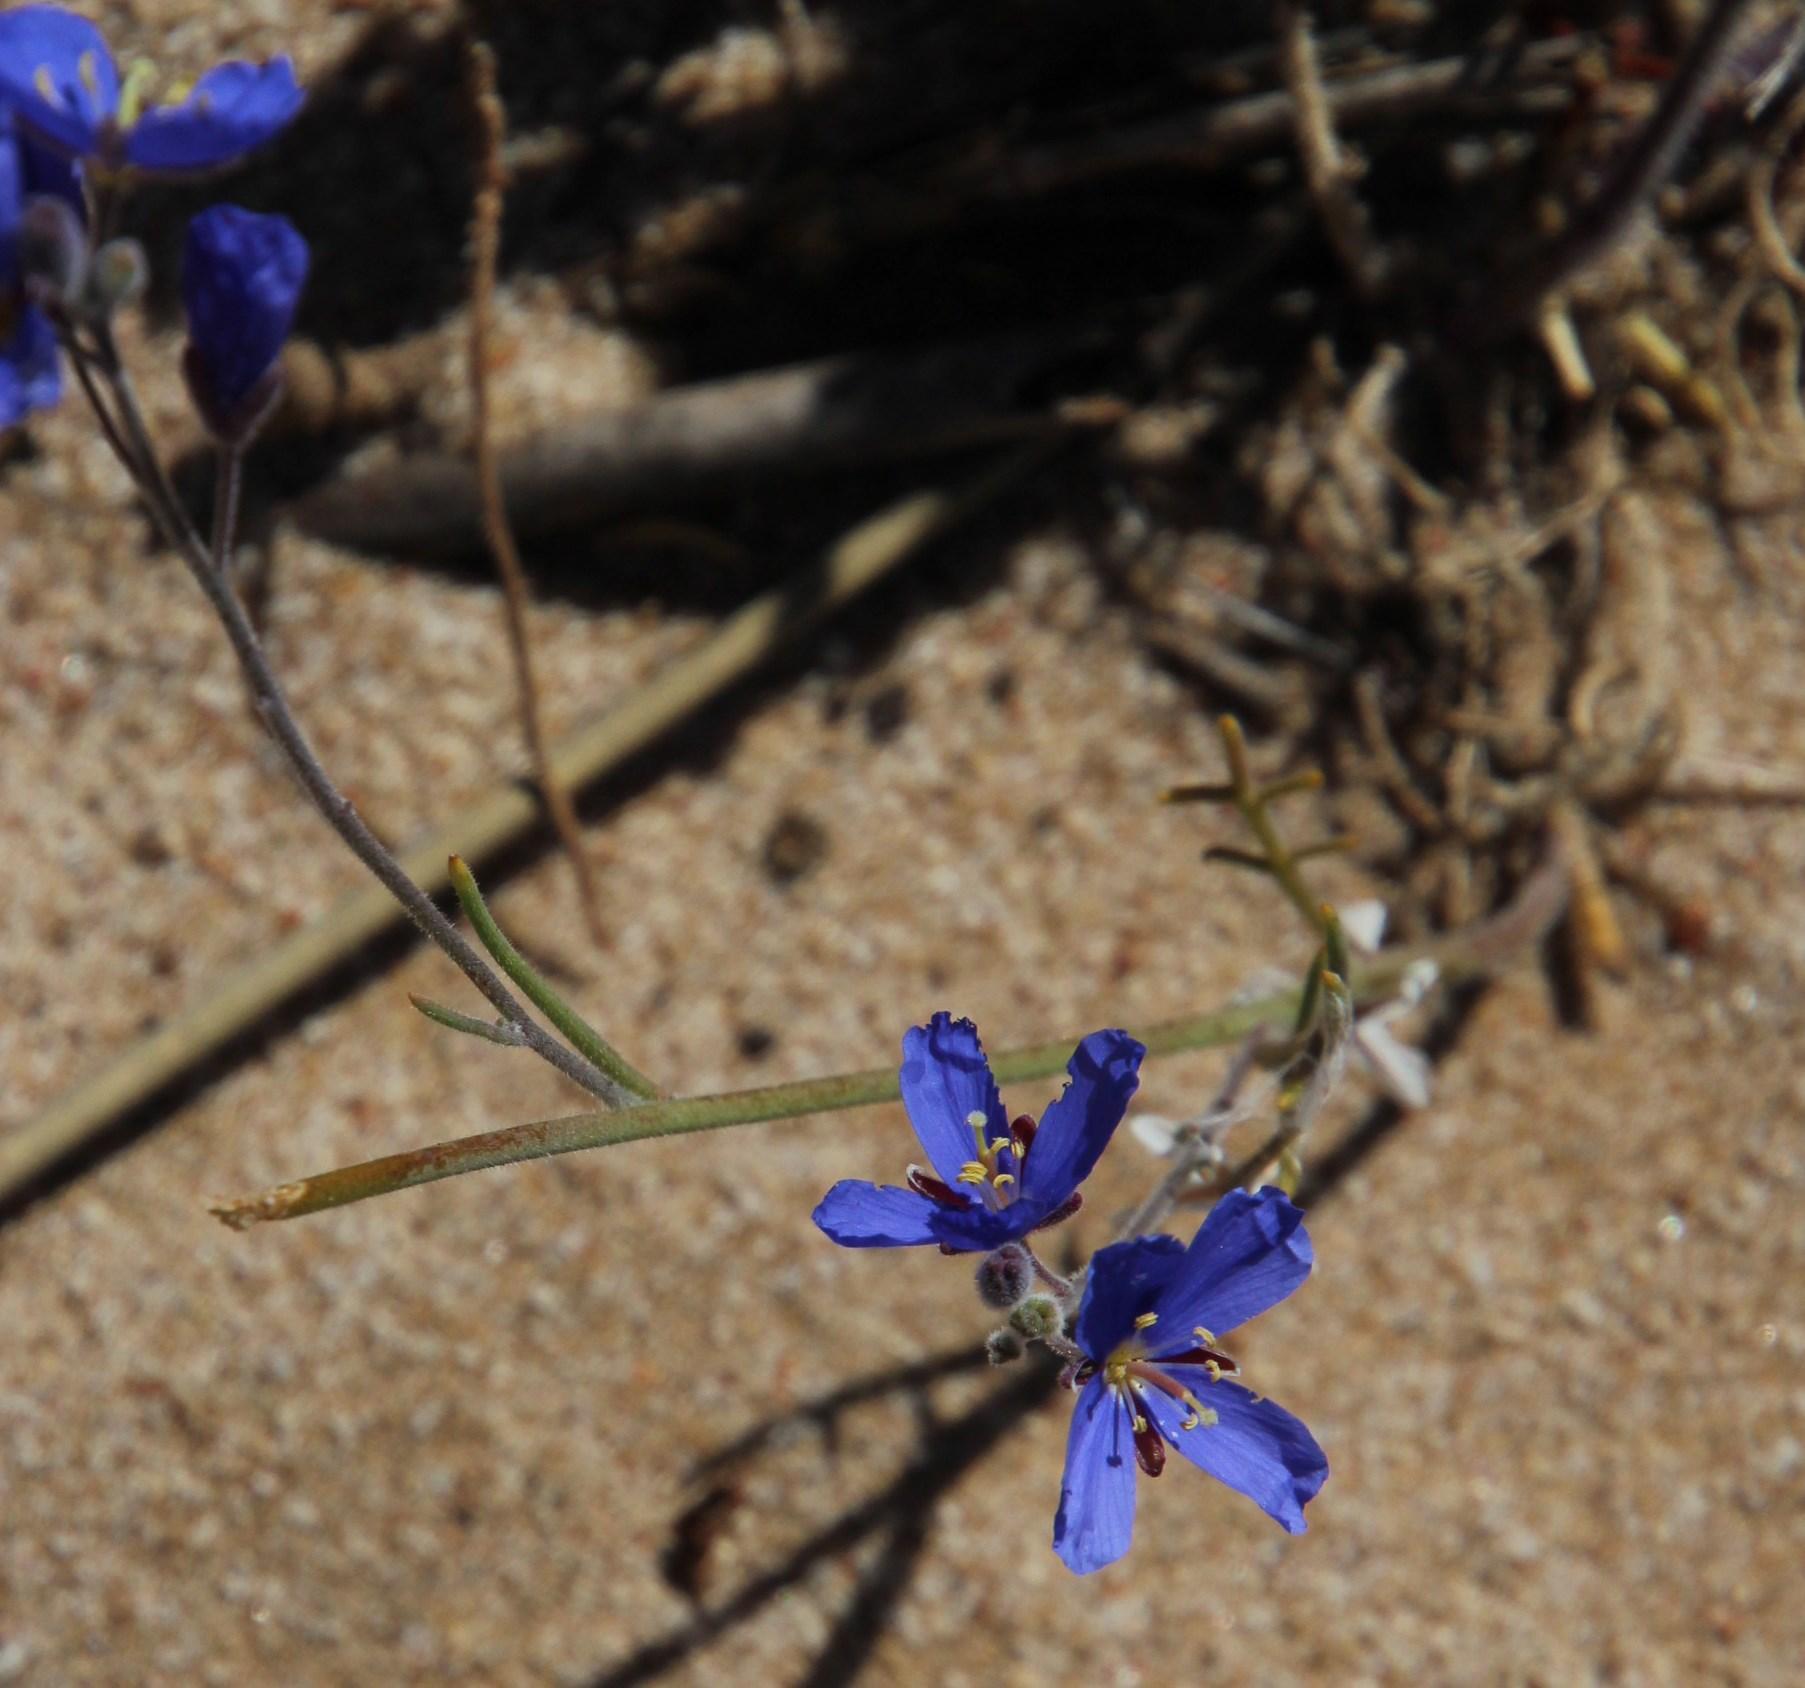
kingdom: Plantae
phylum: Tracheophyta
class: Magnoliopsida
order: Brassicales
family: Brassicaceae
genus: Heliophila
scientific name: Heliophila arenosa
